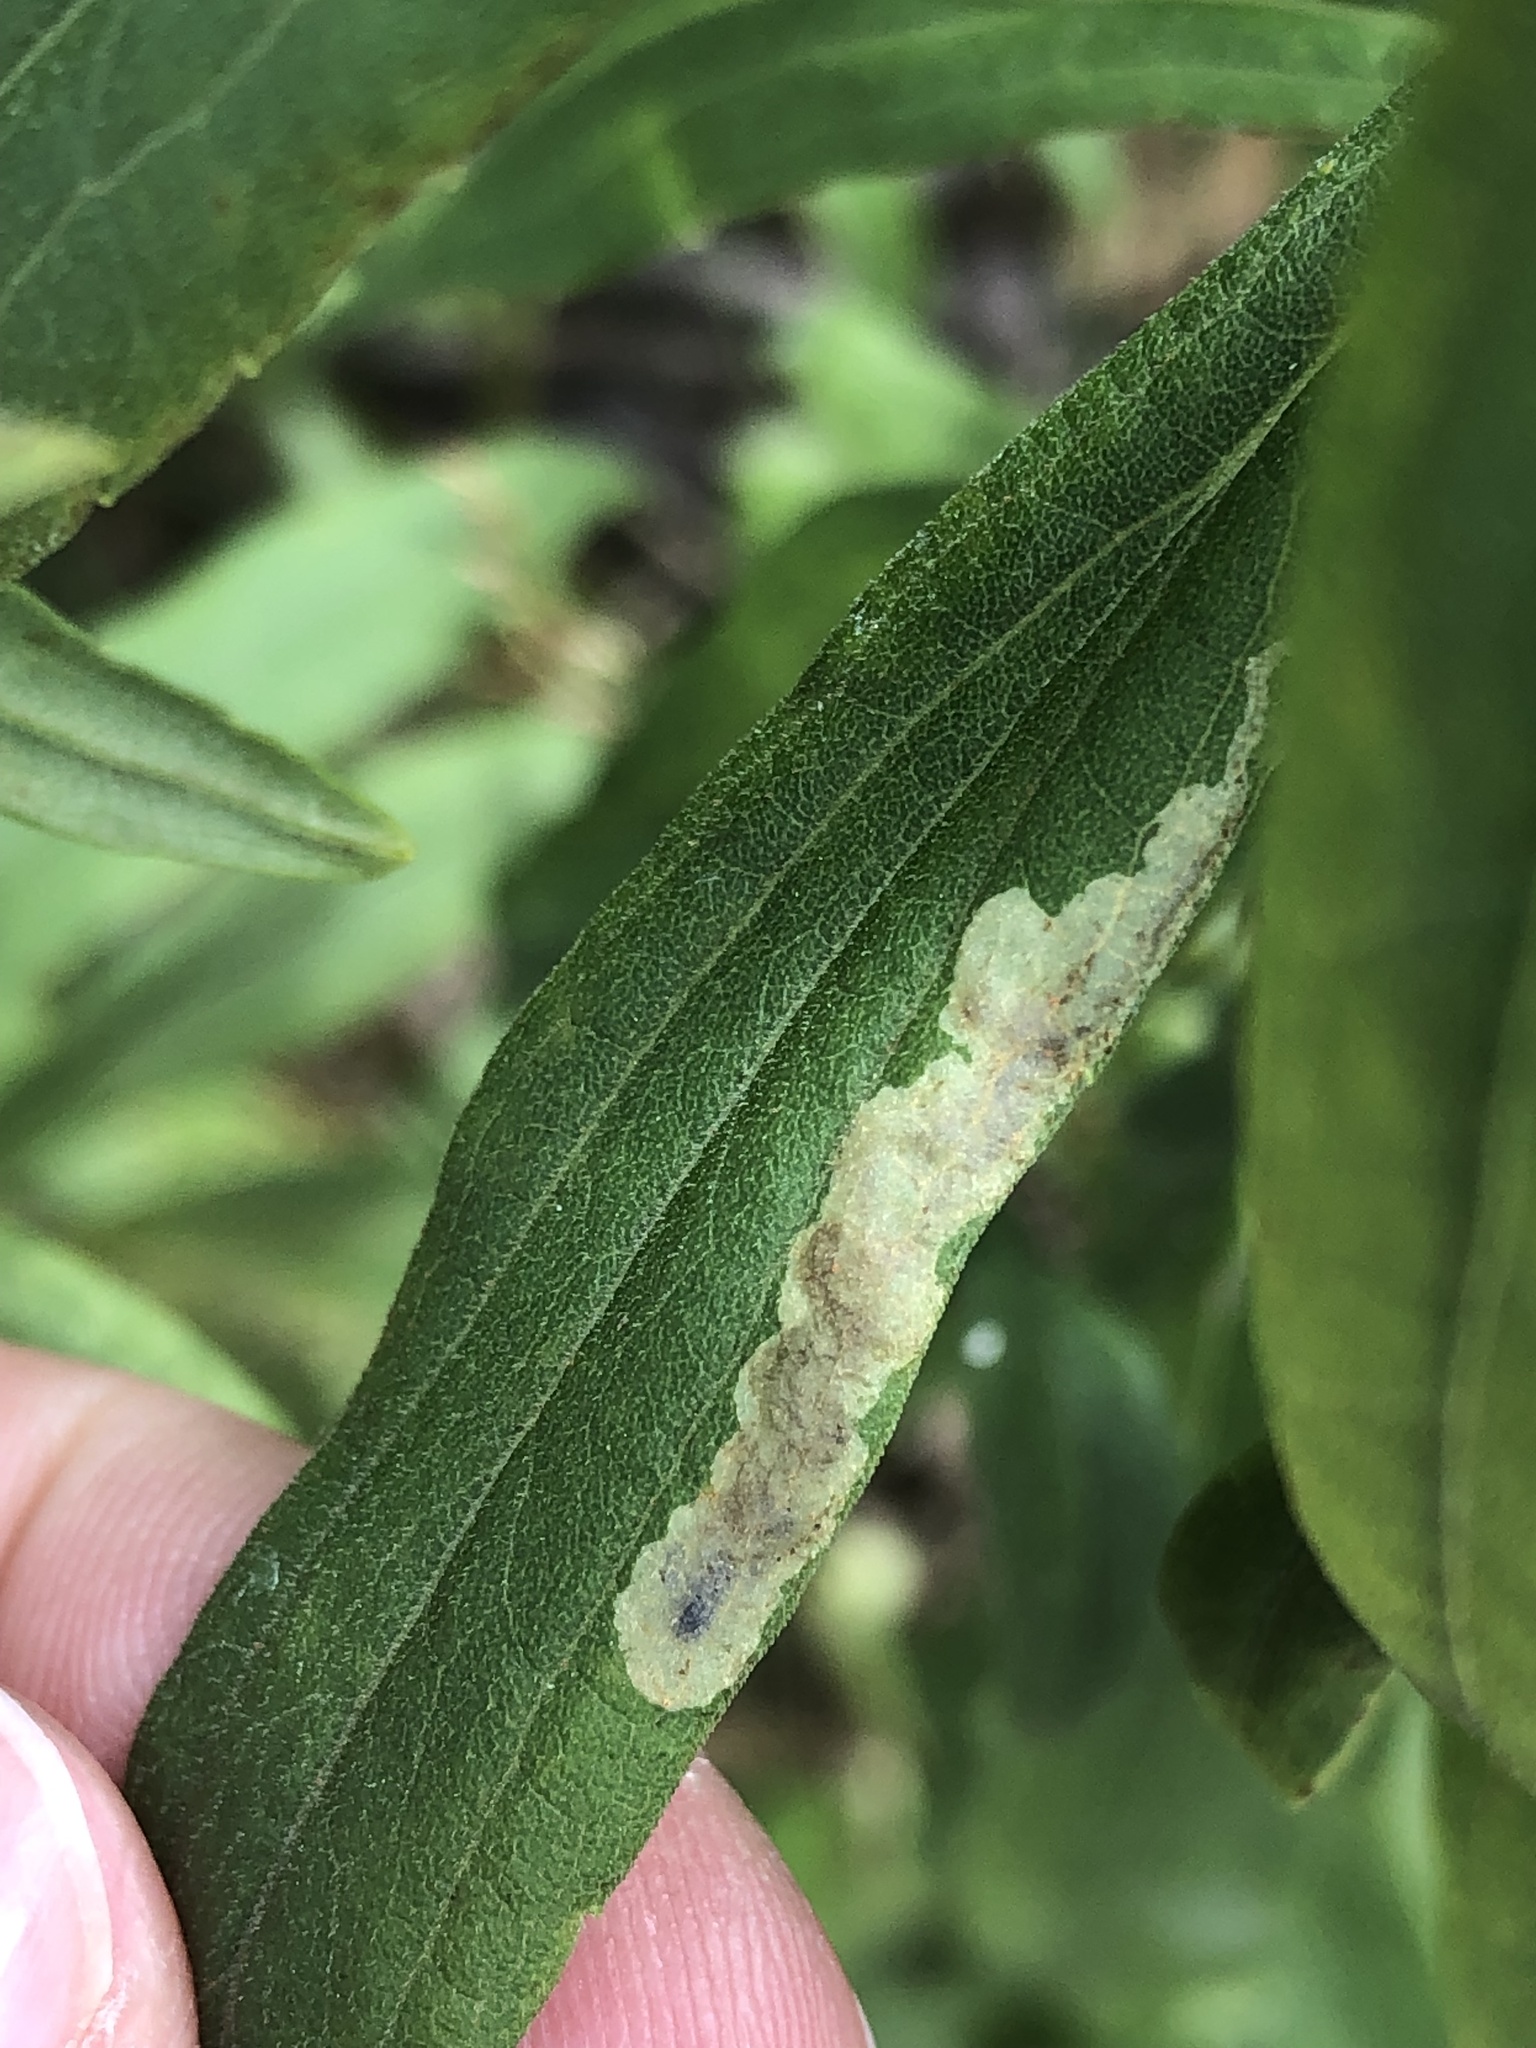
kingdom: Animalia
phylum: Arthropoda
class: Insecta
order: Diptera
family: Agromyzidae
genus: Calycomyza
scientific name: Calycomyza solidaginis
